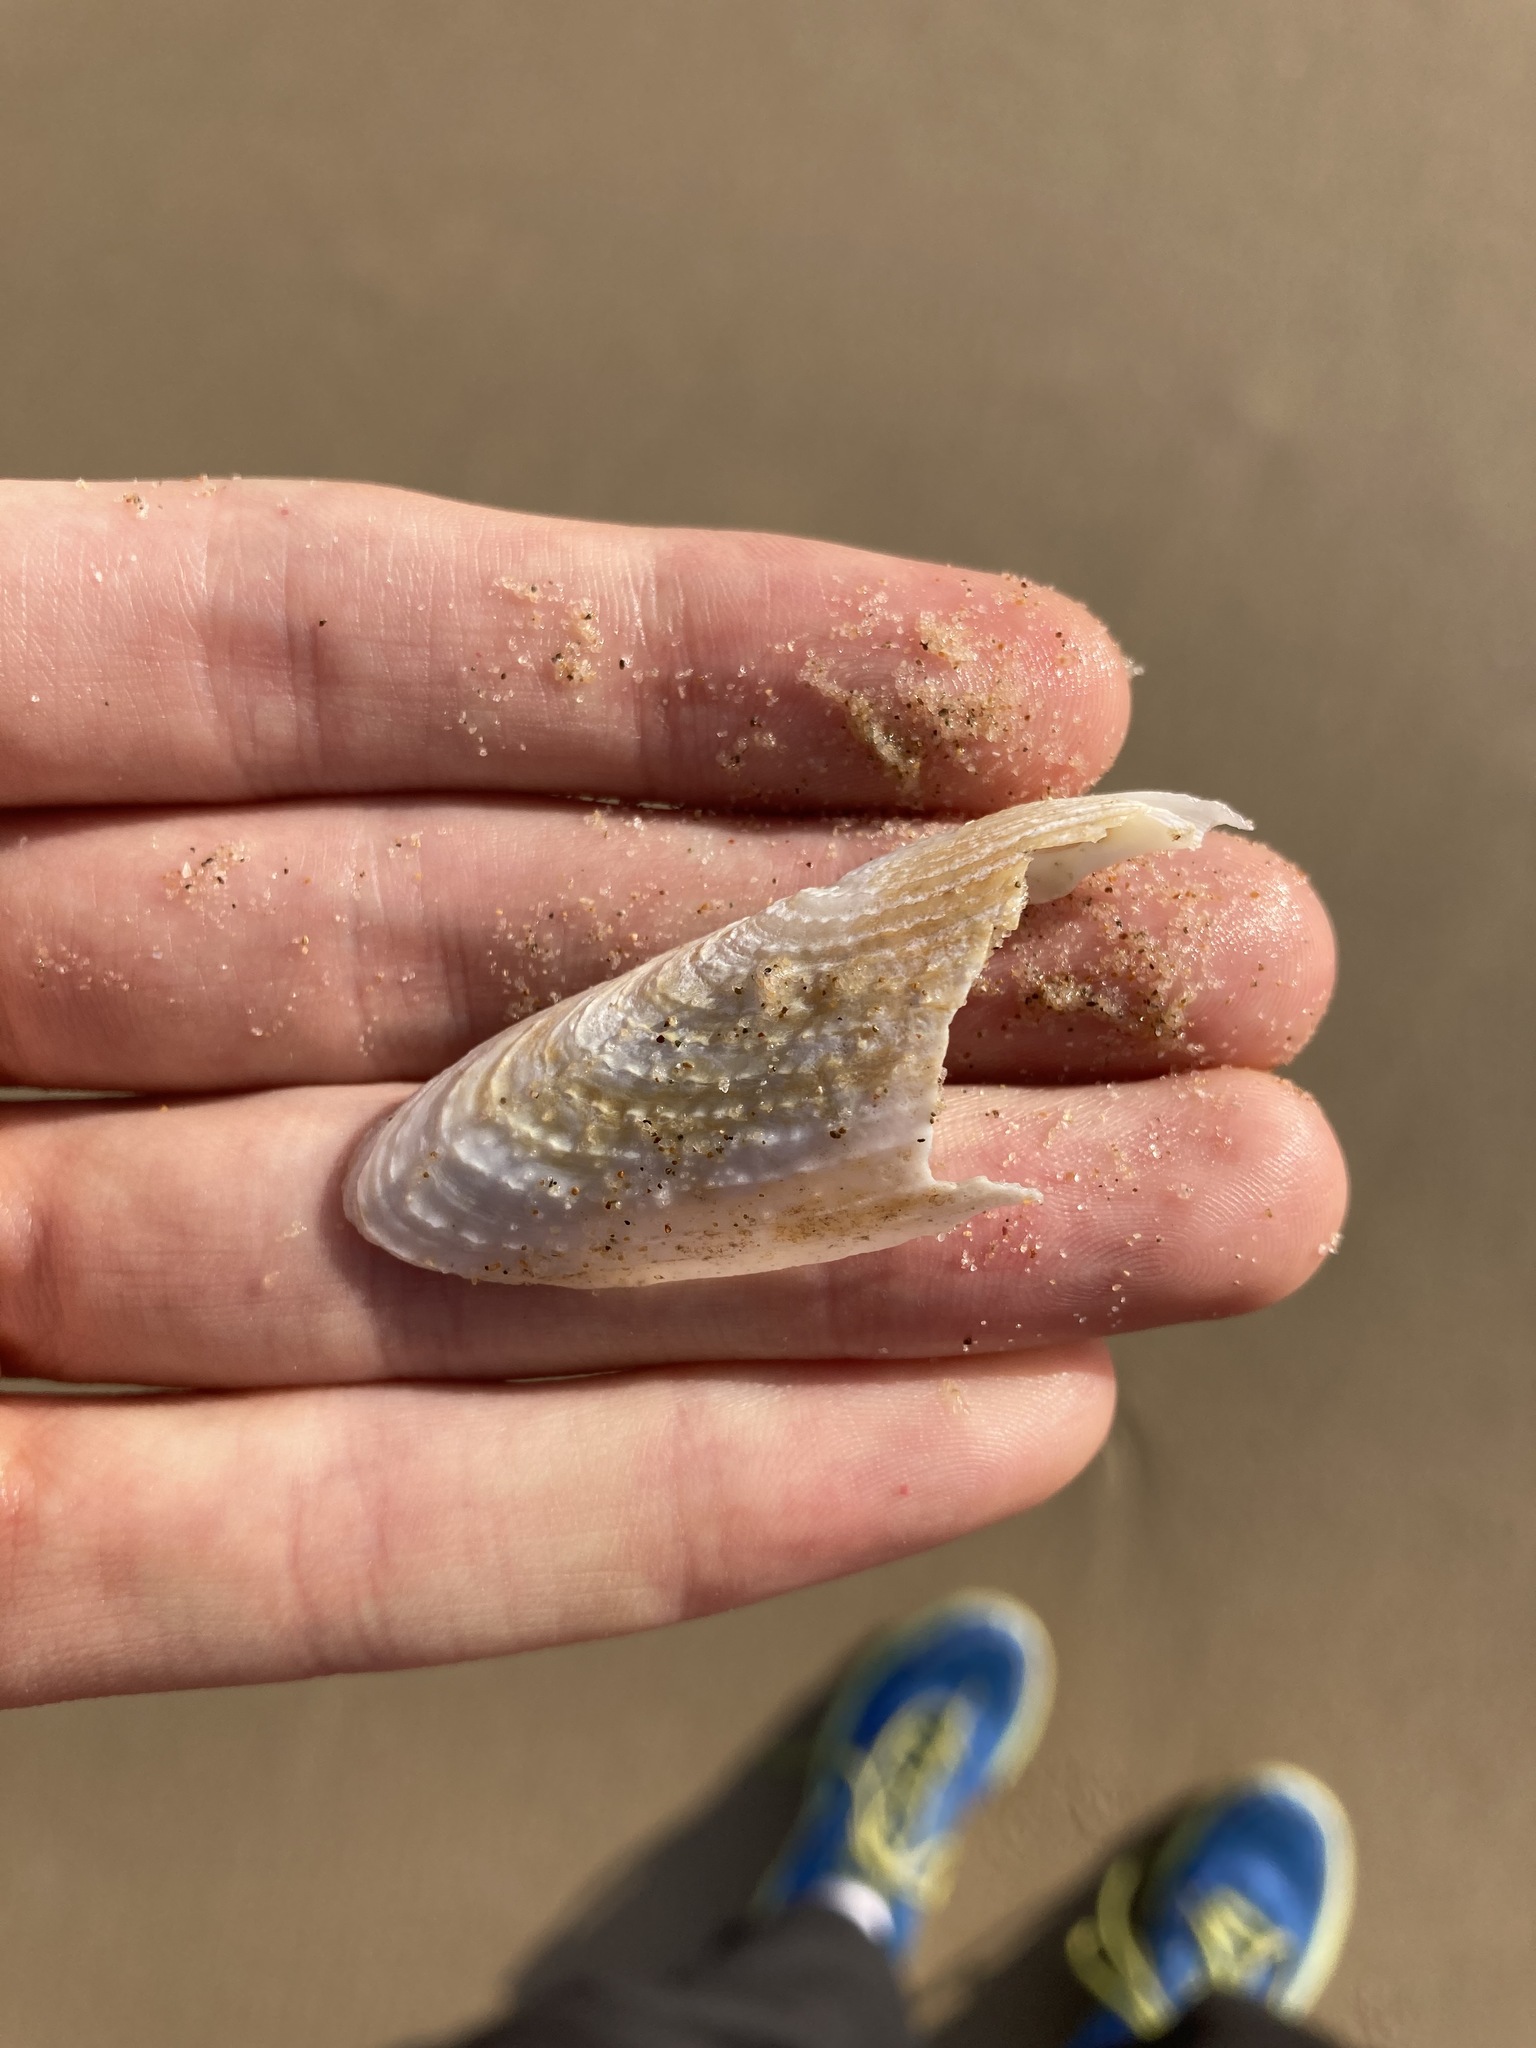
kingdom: Animalia
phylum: Mollusca
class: Bivalvia
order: Myida
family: Pholadidae
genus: Barnea
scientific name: Barnea australasiae
